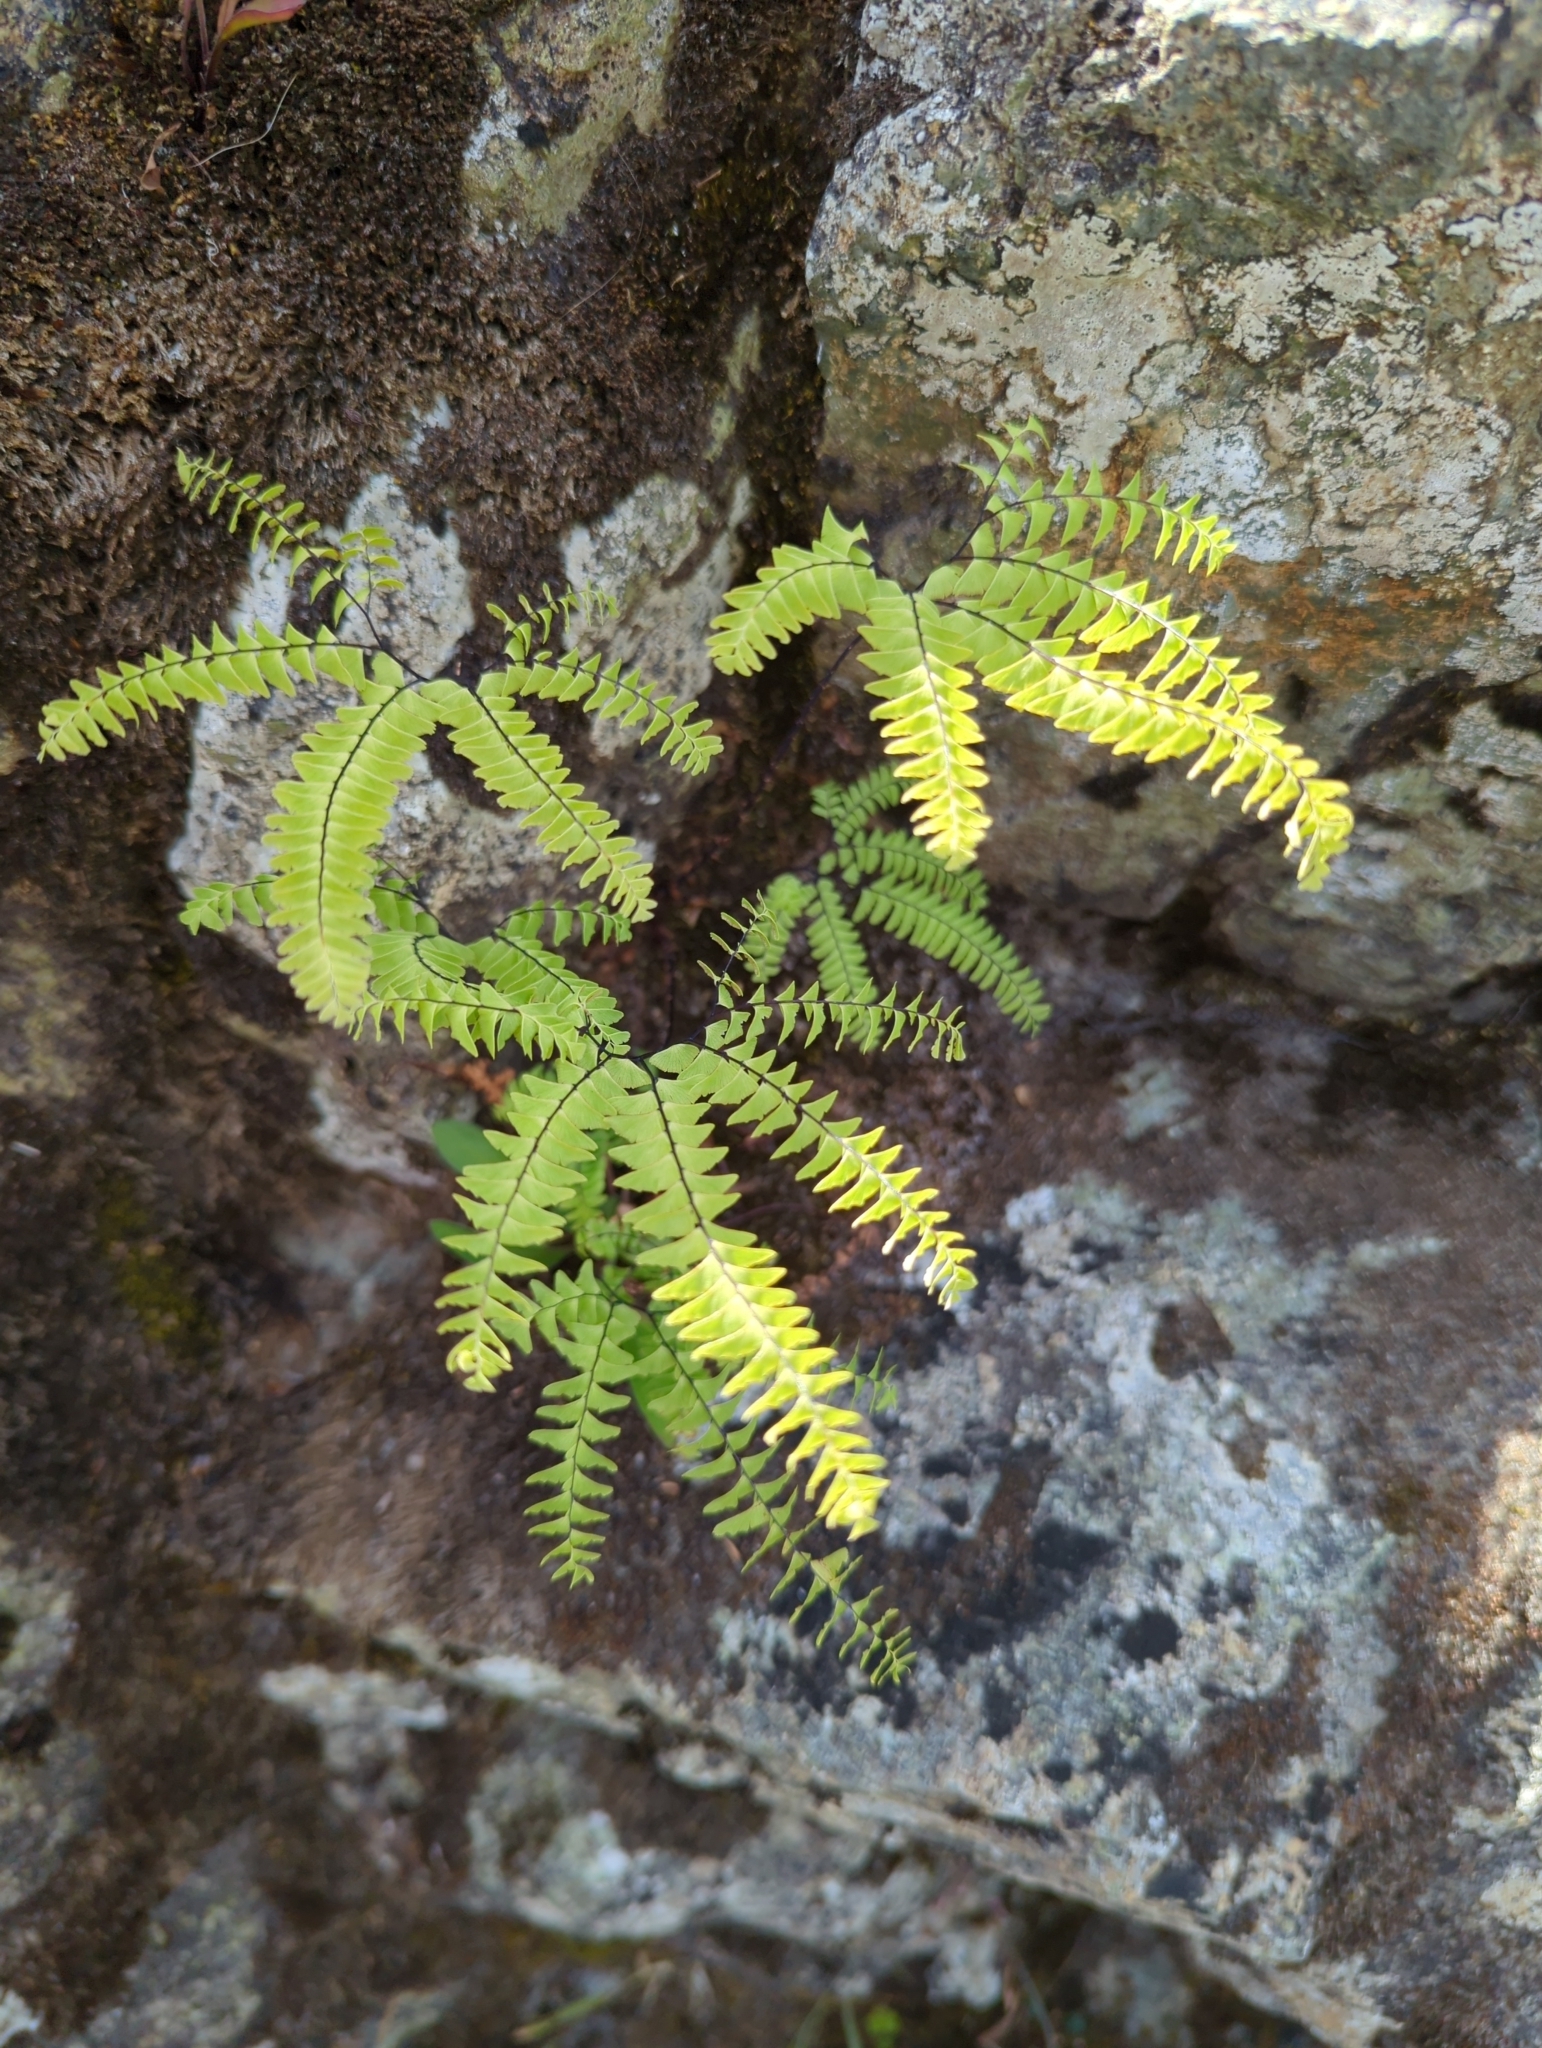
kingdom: Plantae
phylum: Tracheophyta
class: Polypodiopsida
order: Polypodiales
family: Pteridaceae
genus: Adiantum
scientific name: Adiantum aleuticum
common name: Aleutian maidenhair fern
